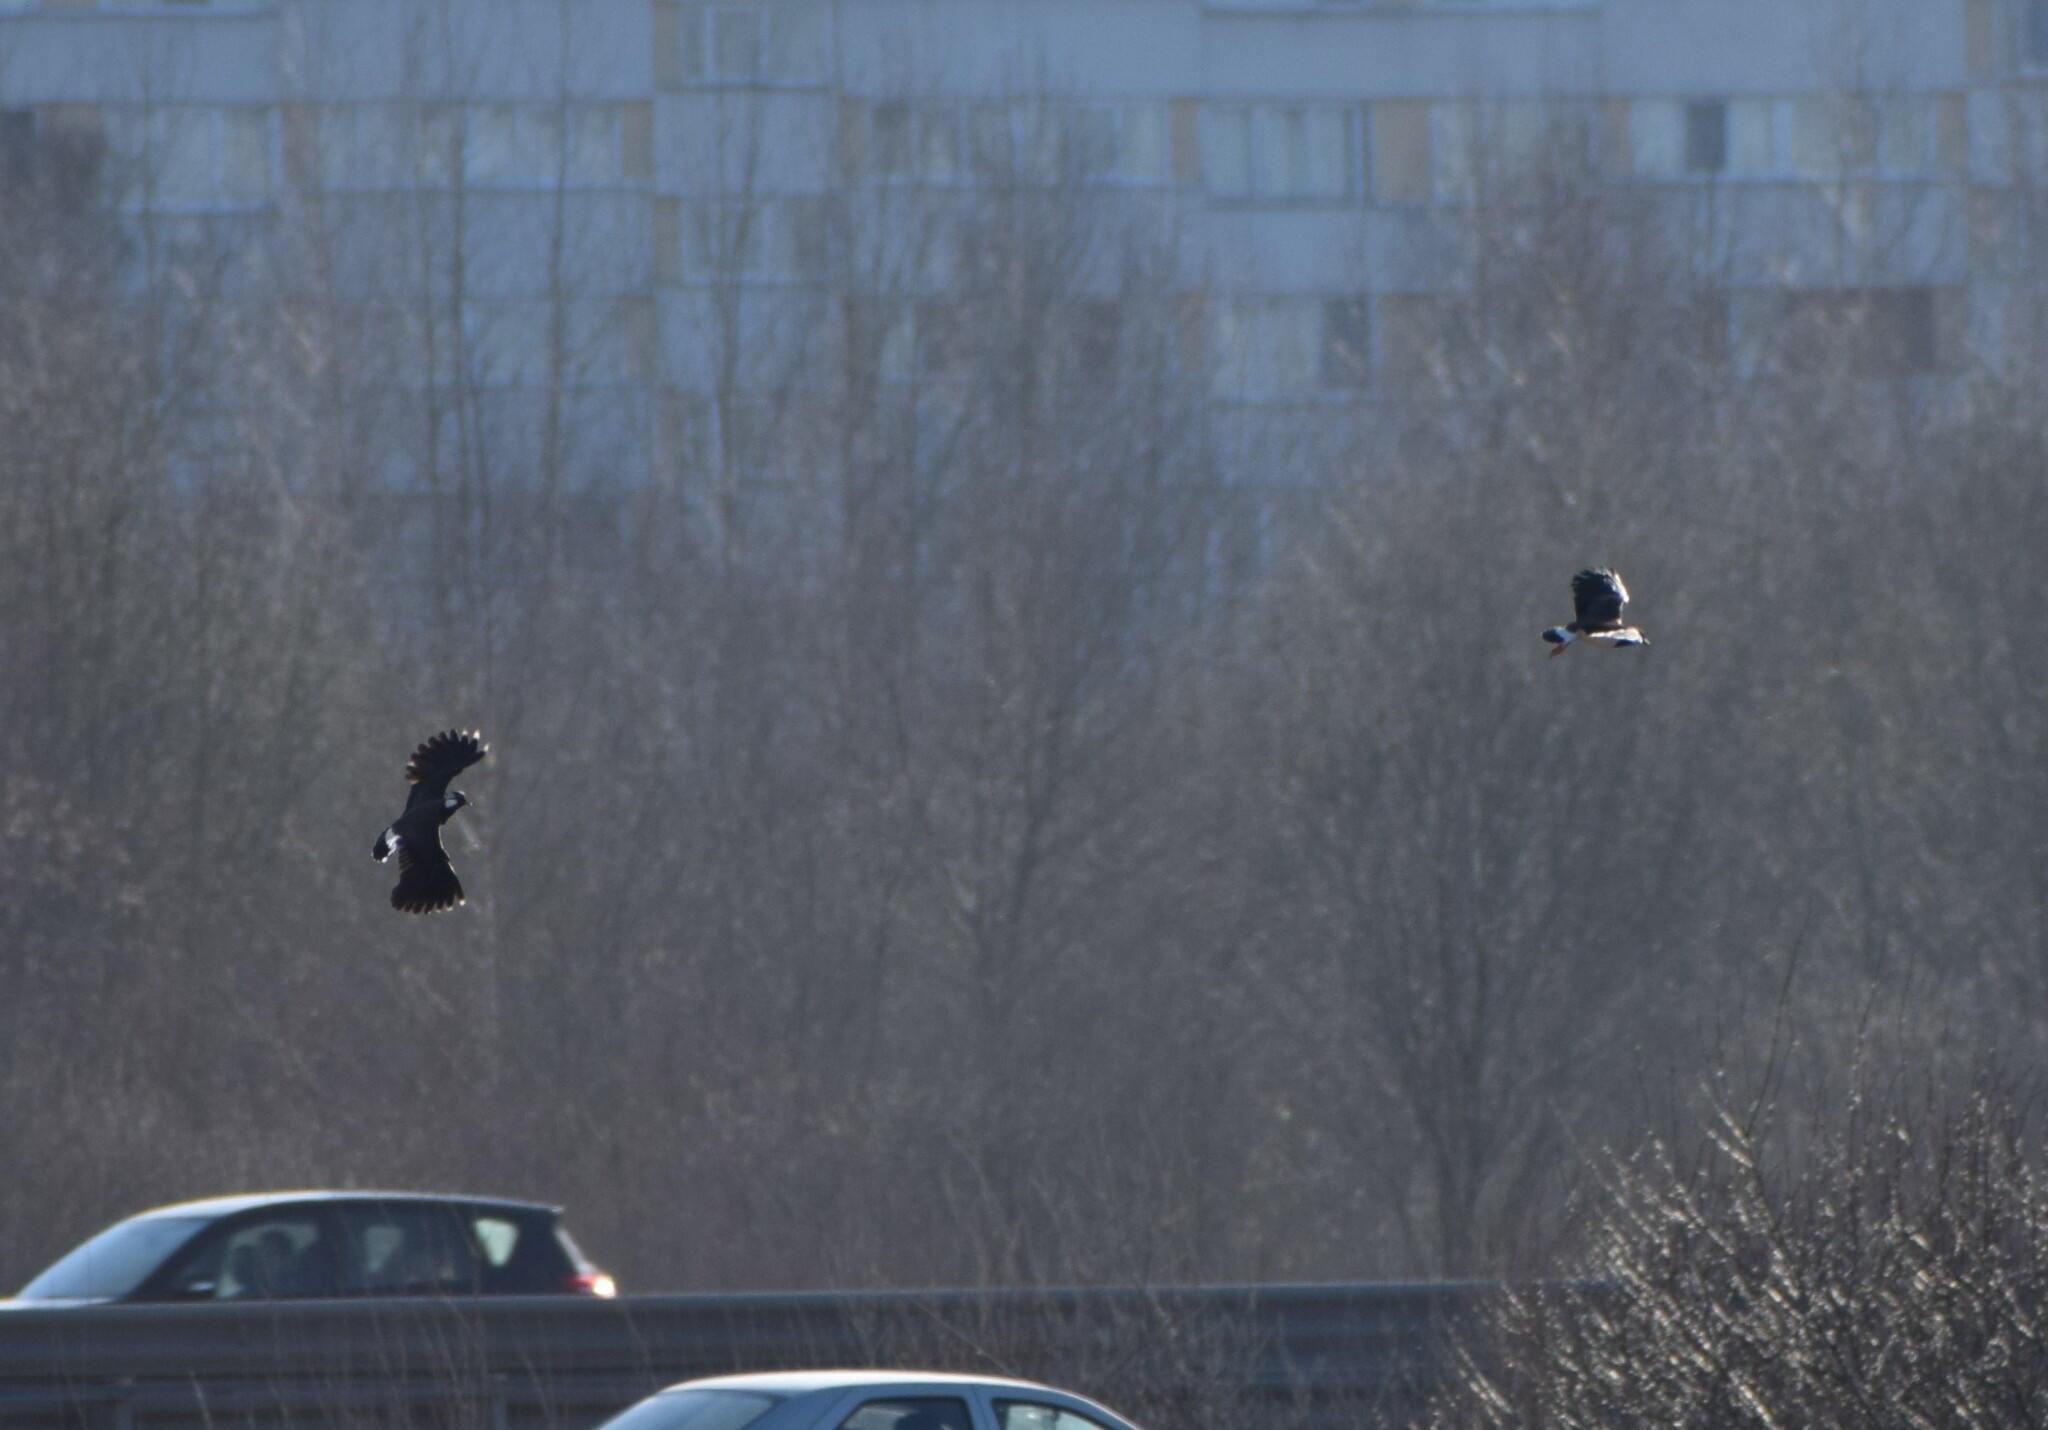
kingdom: Animalia
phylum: Chordata
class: Aves
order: Charadriiformes
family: Charadriidae
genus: Vanellus
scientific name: Vanellus vanellus
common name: Northern lapwing
